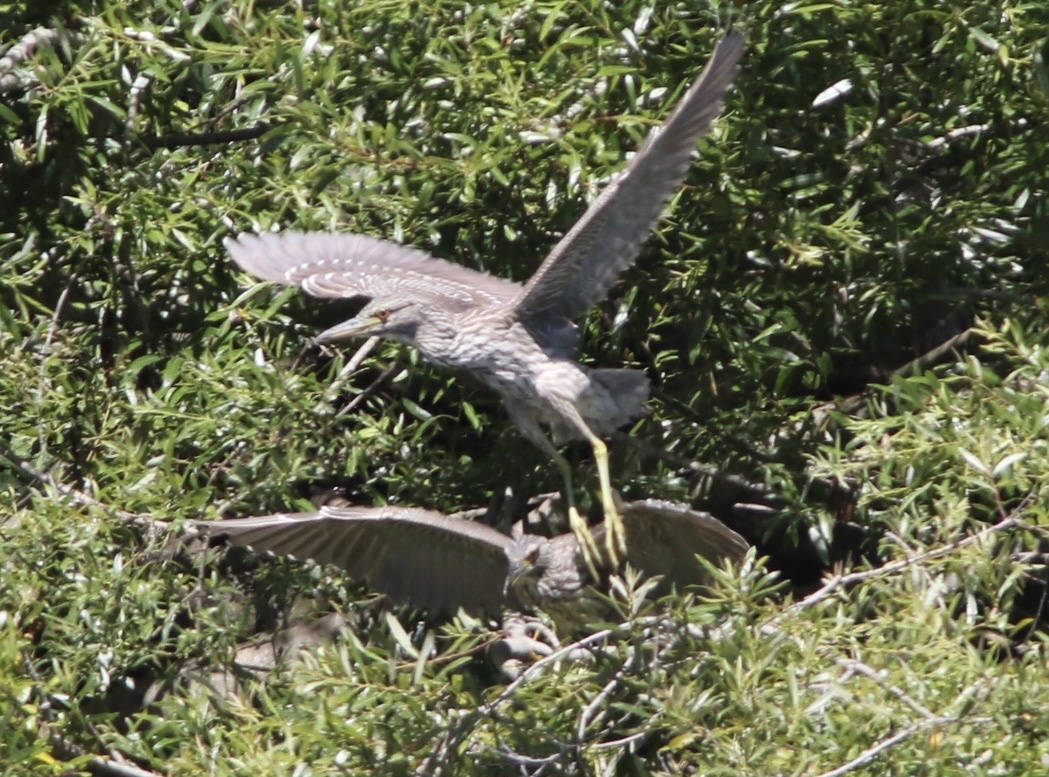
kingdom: Animalia
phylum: Chordata
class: Aves
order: Pelecaniformes
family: Ardeidae
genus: Nycticorax
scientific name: Nycticorax nycticorax
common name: Black-crowned night heron
